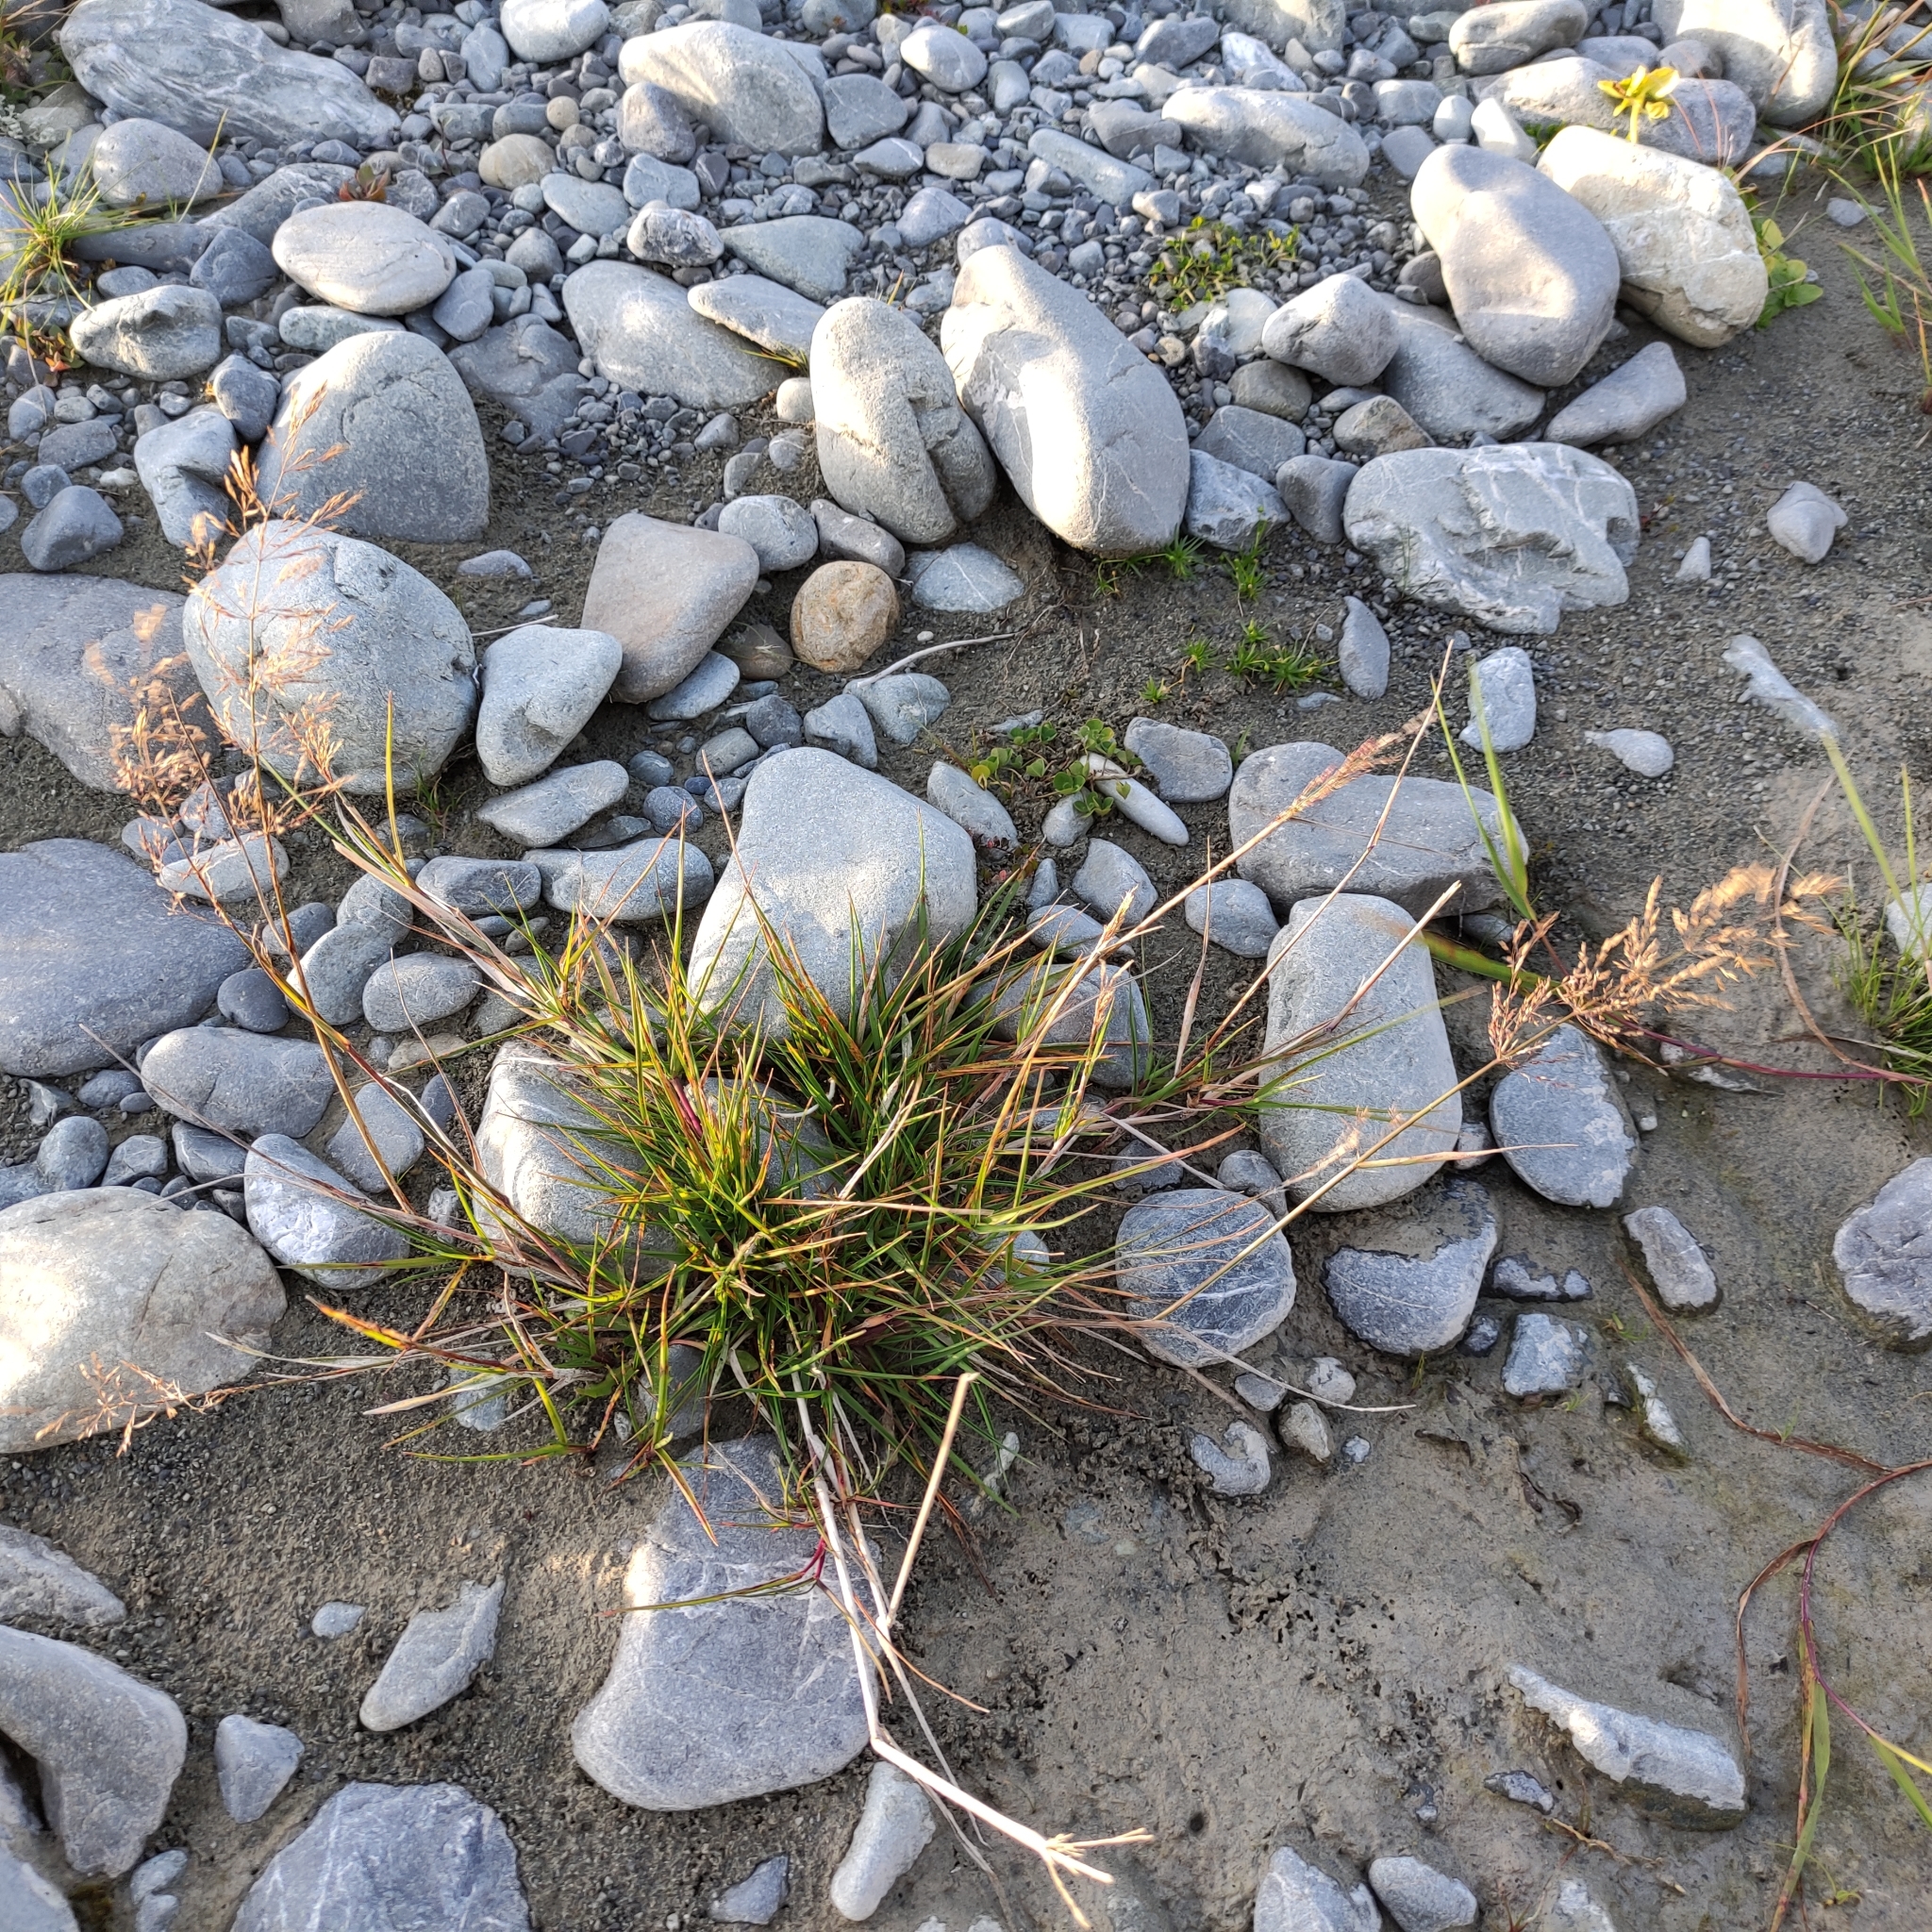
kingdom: Plantae
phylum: Tracheophyta
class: Liliopsida
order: Poales
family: Poaceae
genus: Agrostis
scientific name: Agrostis capillaris
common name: Colonial bentgrass
